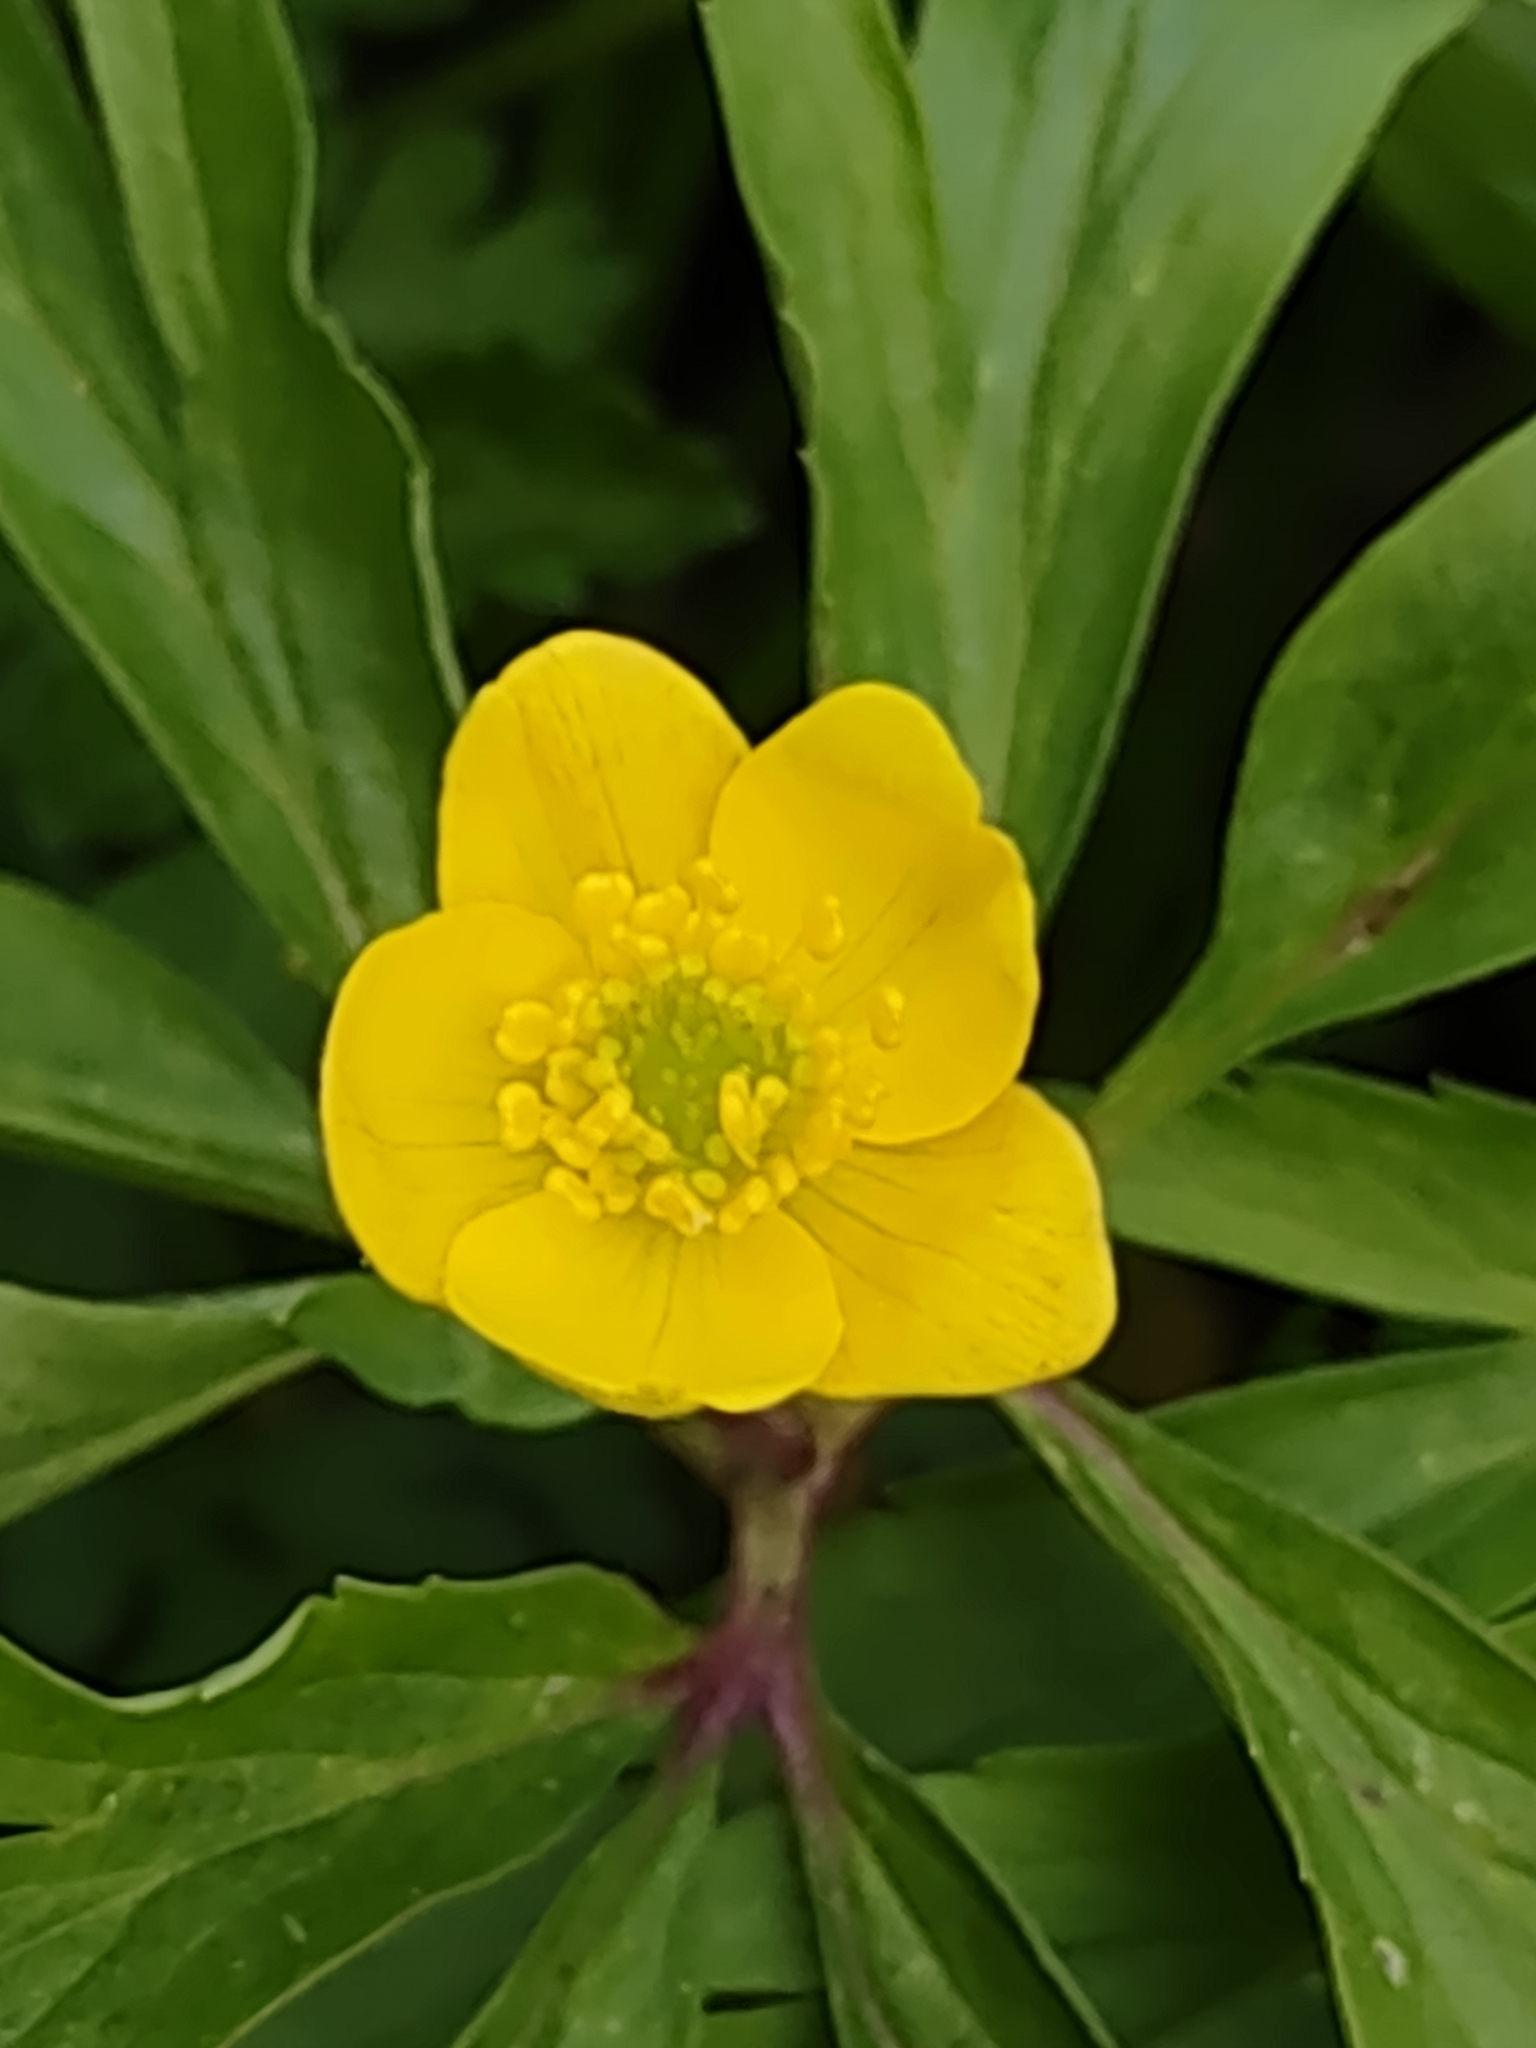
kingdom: Plantae
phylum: Tracheophyta
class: Magnoliopsida
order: Ranunculales
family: Ranunculaceae
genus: Anemone
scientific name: Anemone ranunculoides
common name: Yellow anemone
